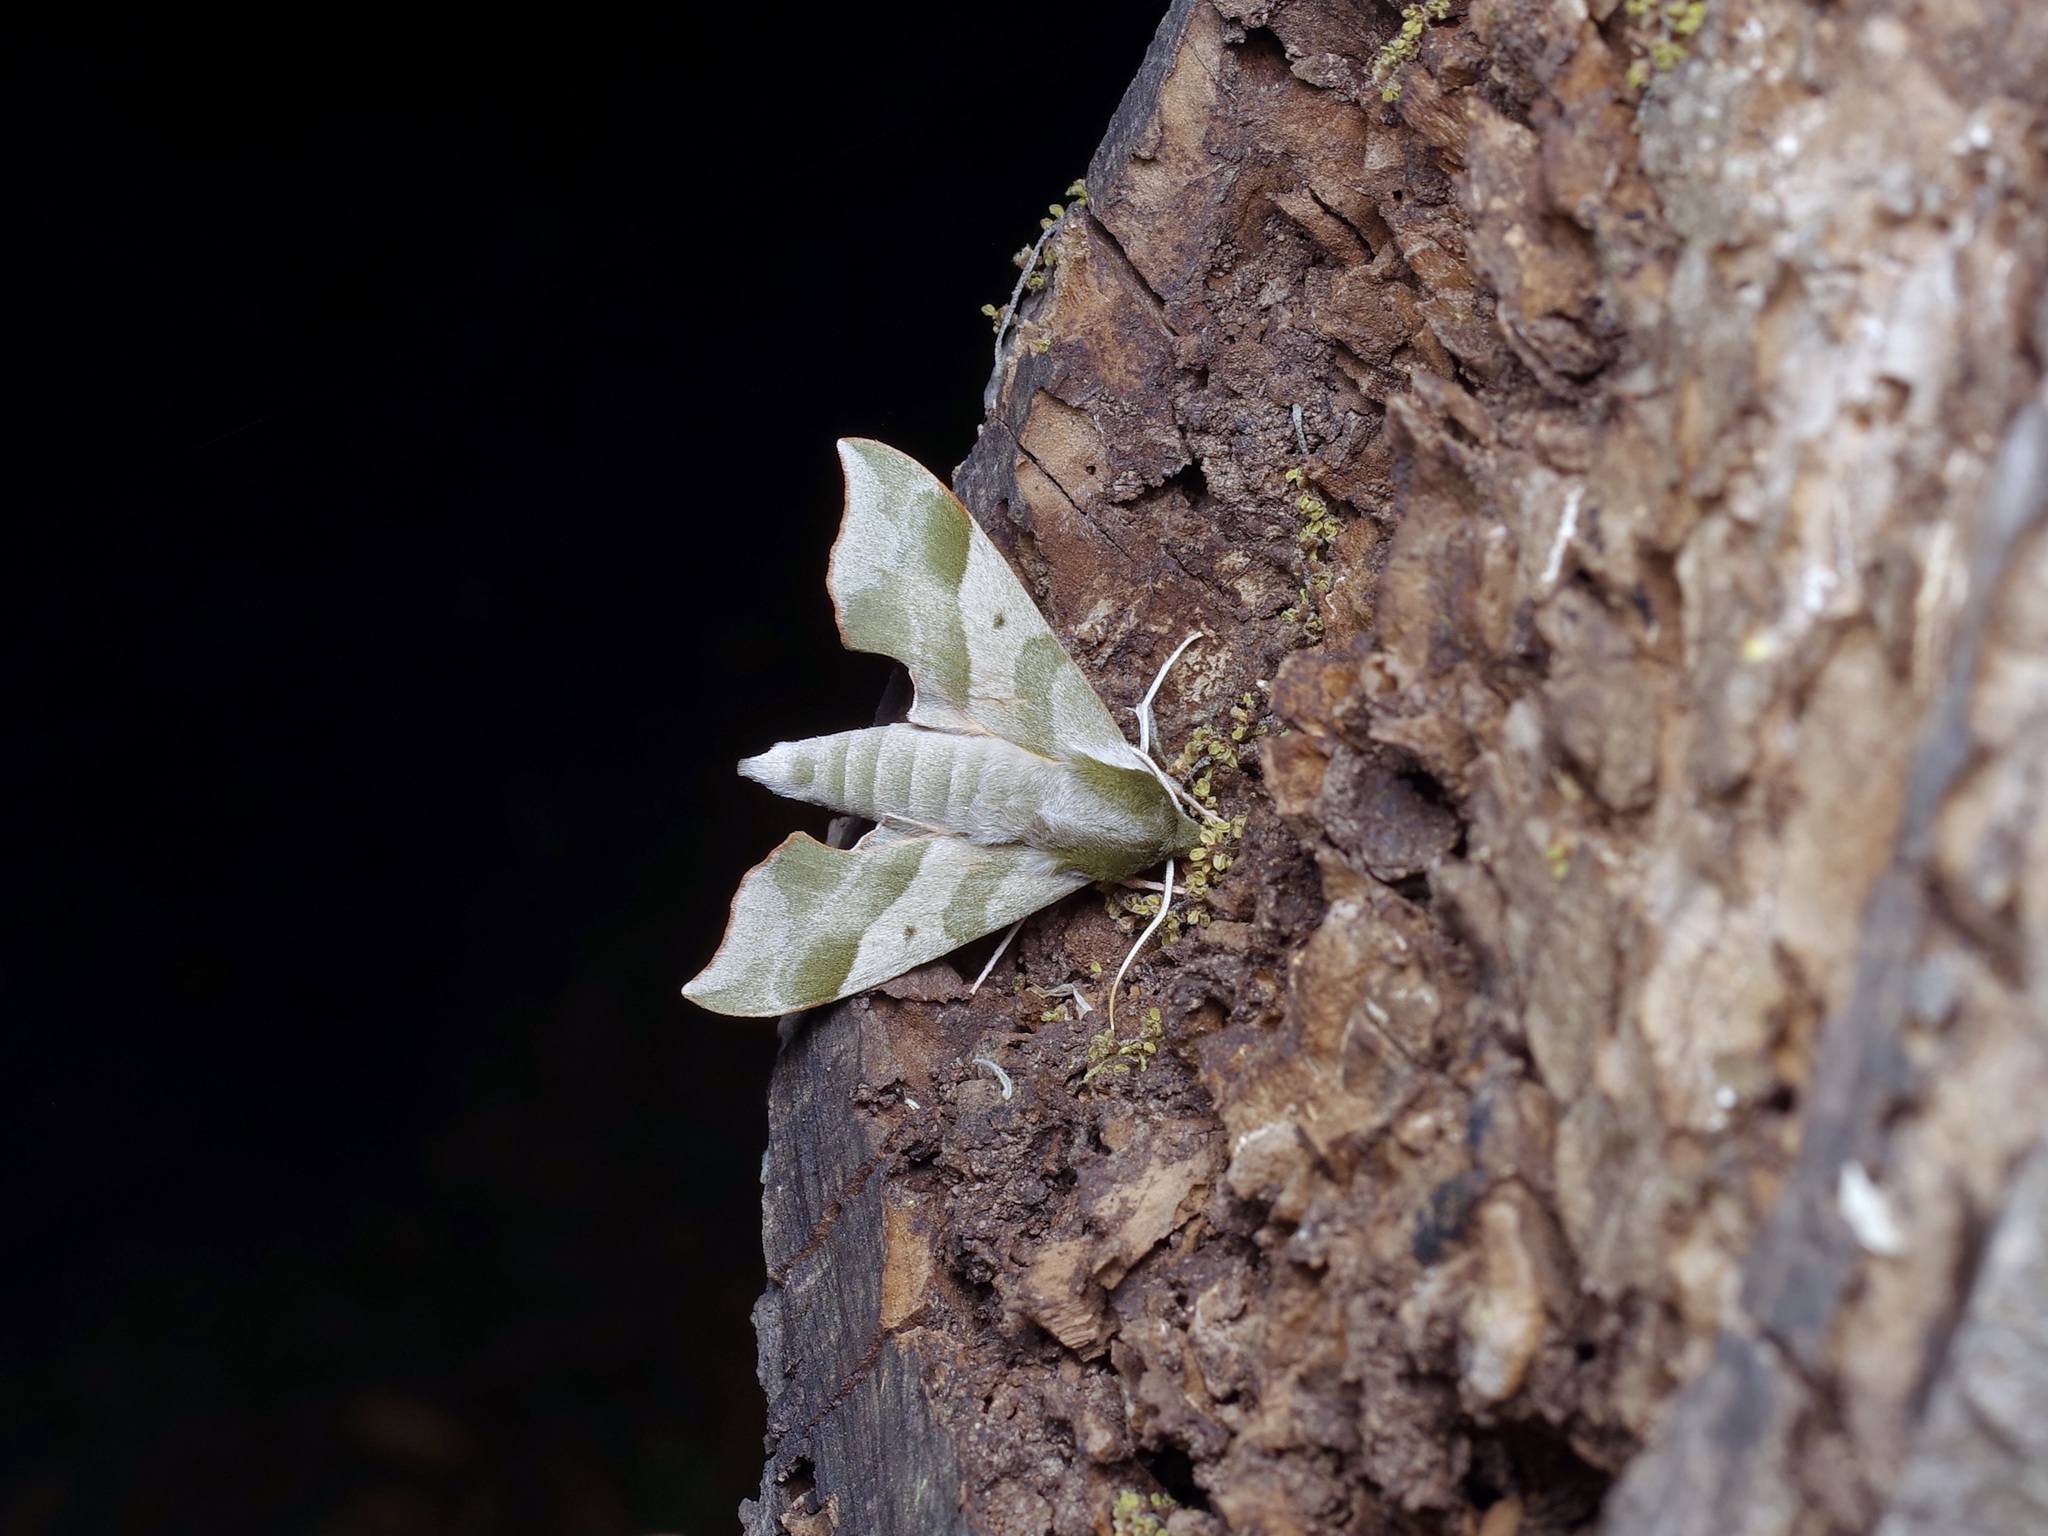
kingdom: Animalia
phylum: Arthropoda
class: Insecta
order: Lepidoptera
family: Sphingidae
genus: Darapsa
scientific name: Darapsa myron
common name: Hog sphinx
